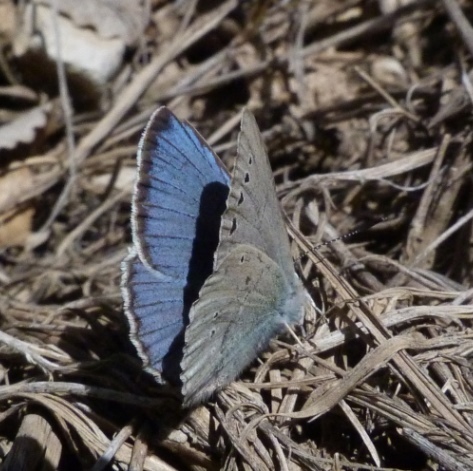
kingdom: Animalia
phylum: Arthropoda
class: Insecta
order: Lepidoptera
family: Lycaenidae
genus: Iolana
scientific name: Iolana debilitata
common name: Iolas blue
